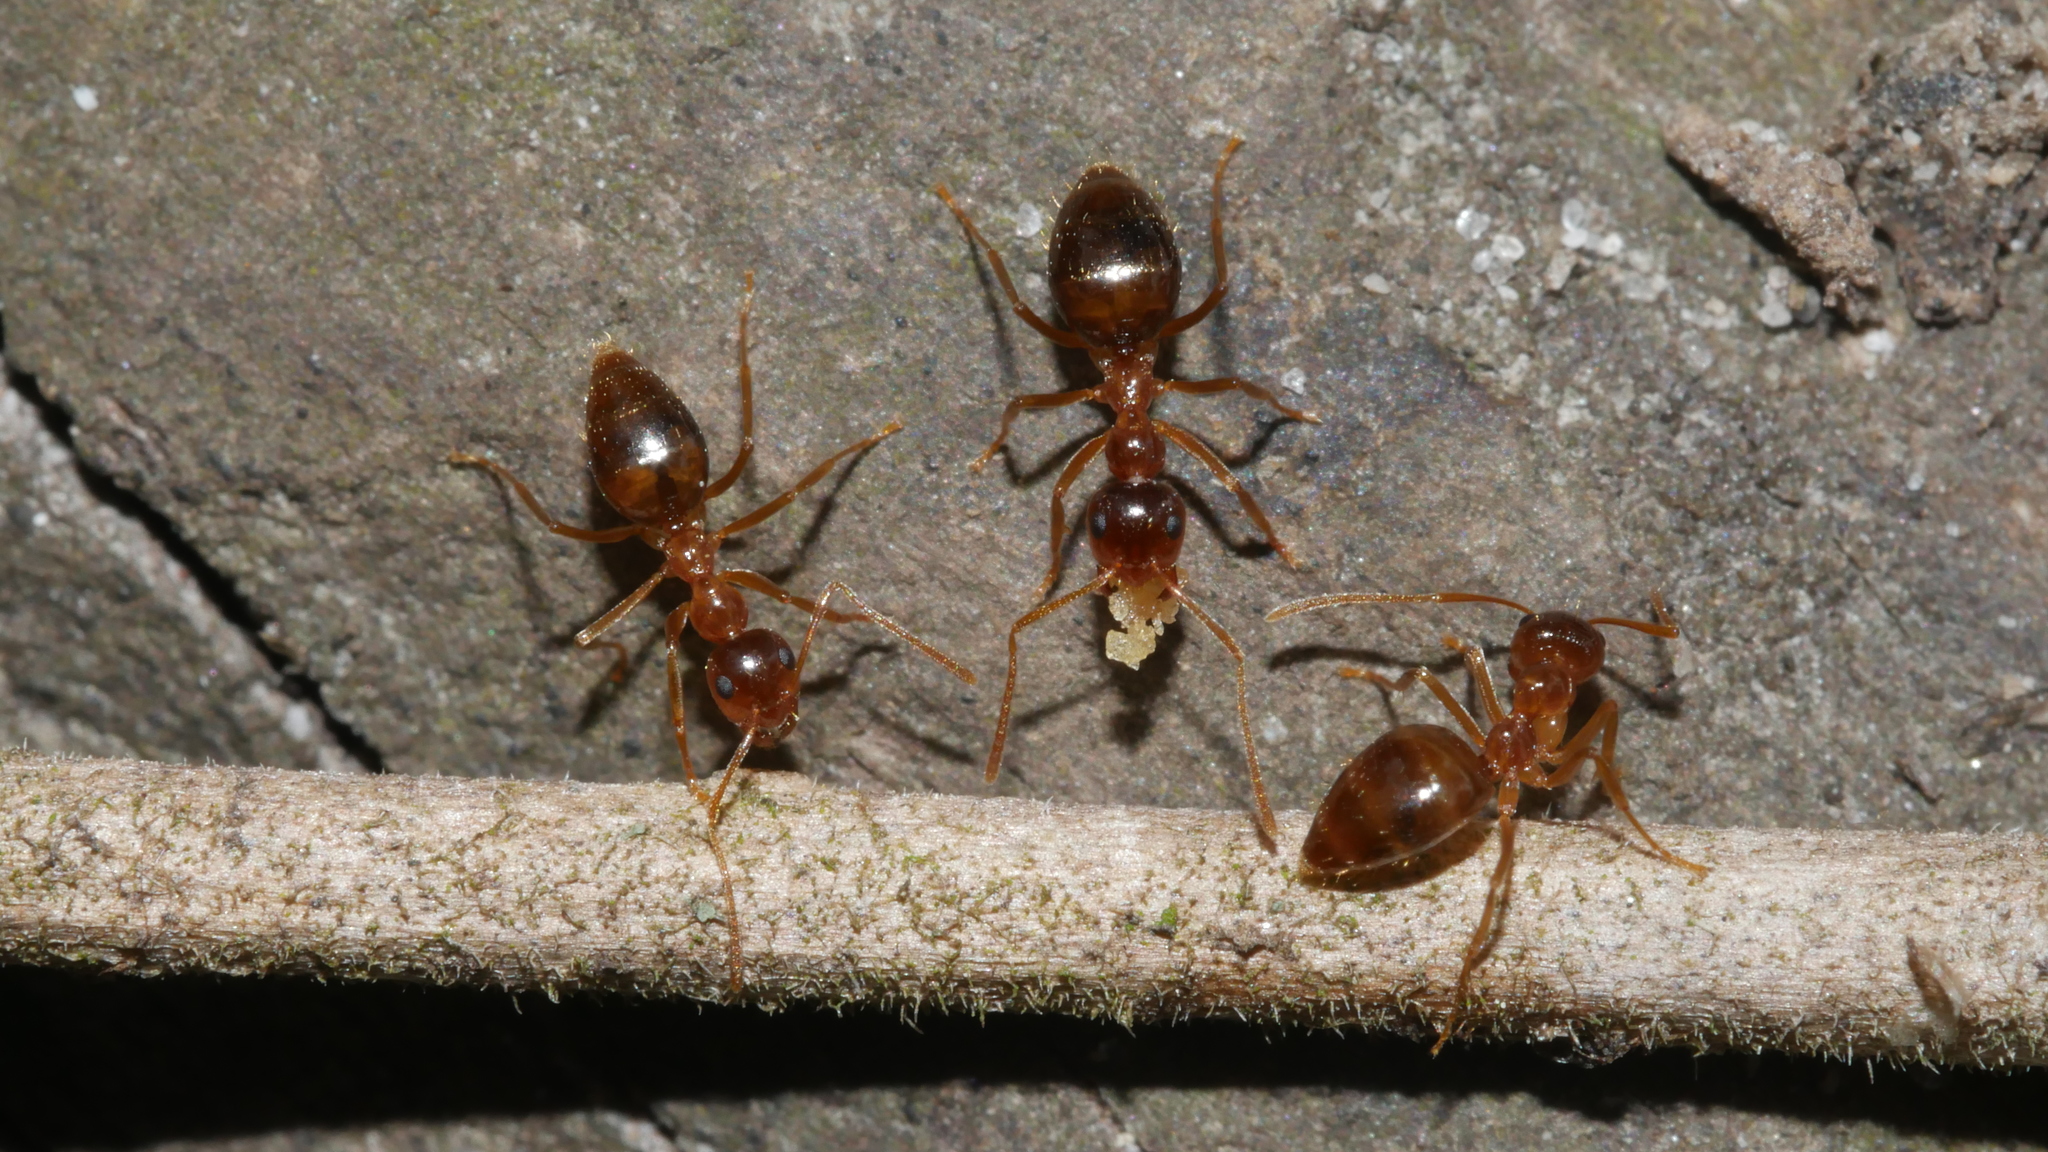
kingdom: Animalia
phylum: Arthropoda
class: Insecta
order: Hymenoptera
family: Formicidae
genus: Prenolepis
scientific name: Prenolepis imparis
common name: Small honey ant
